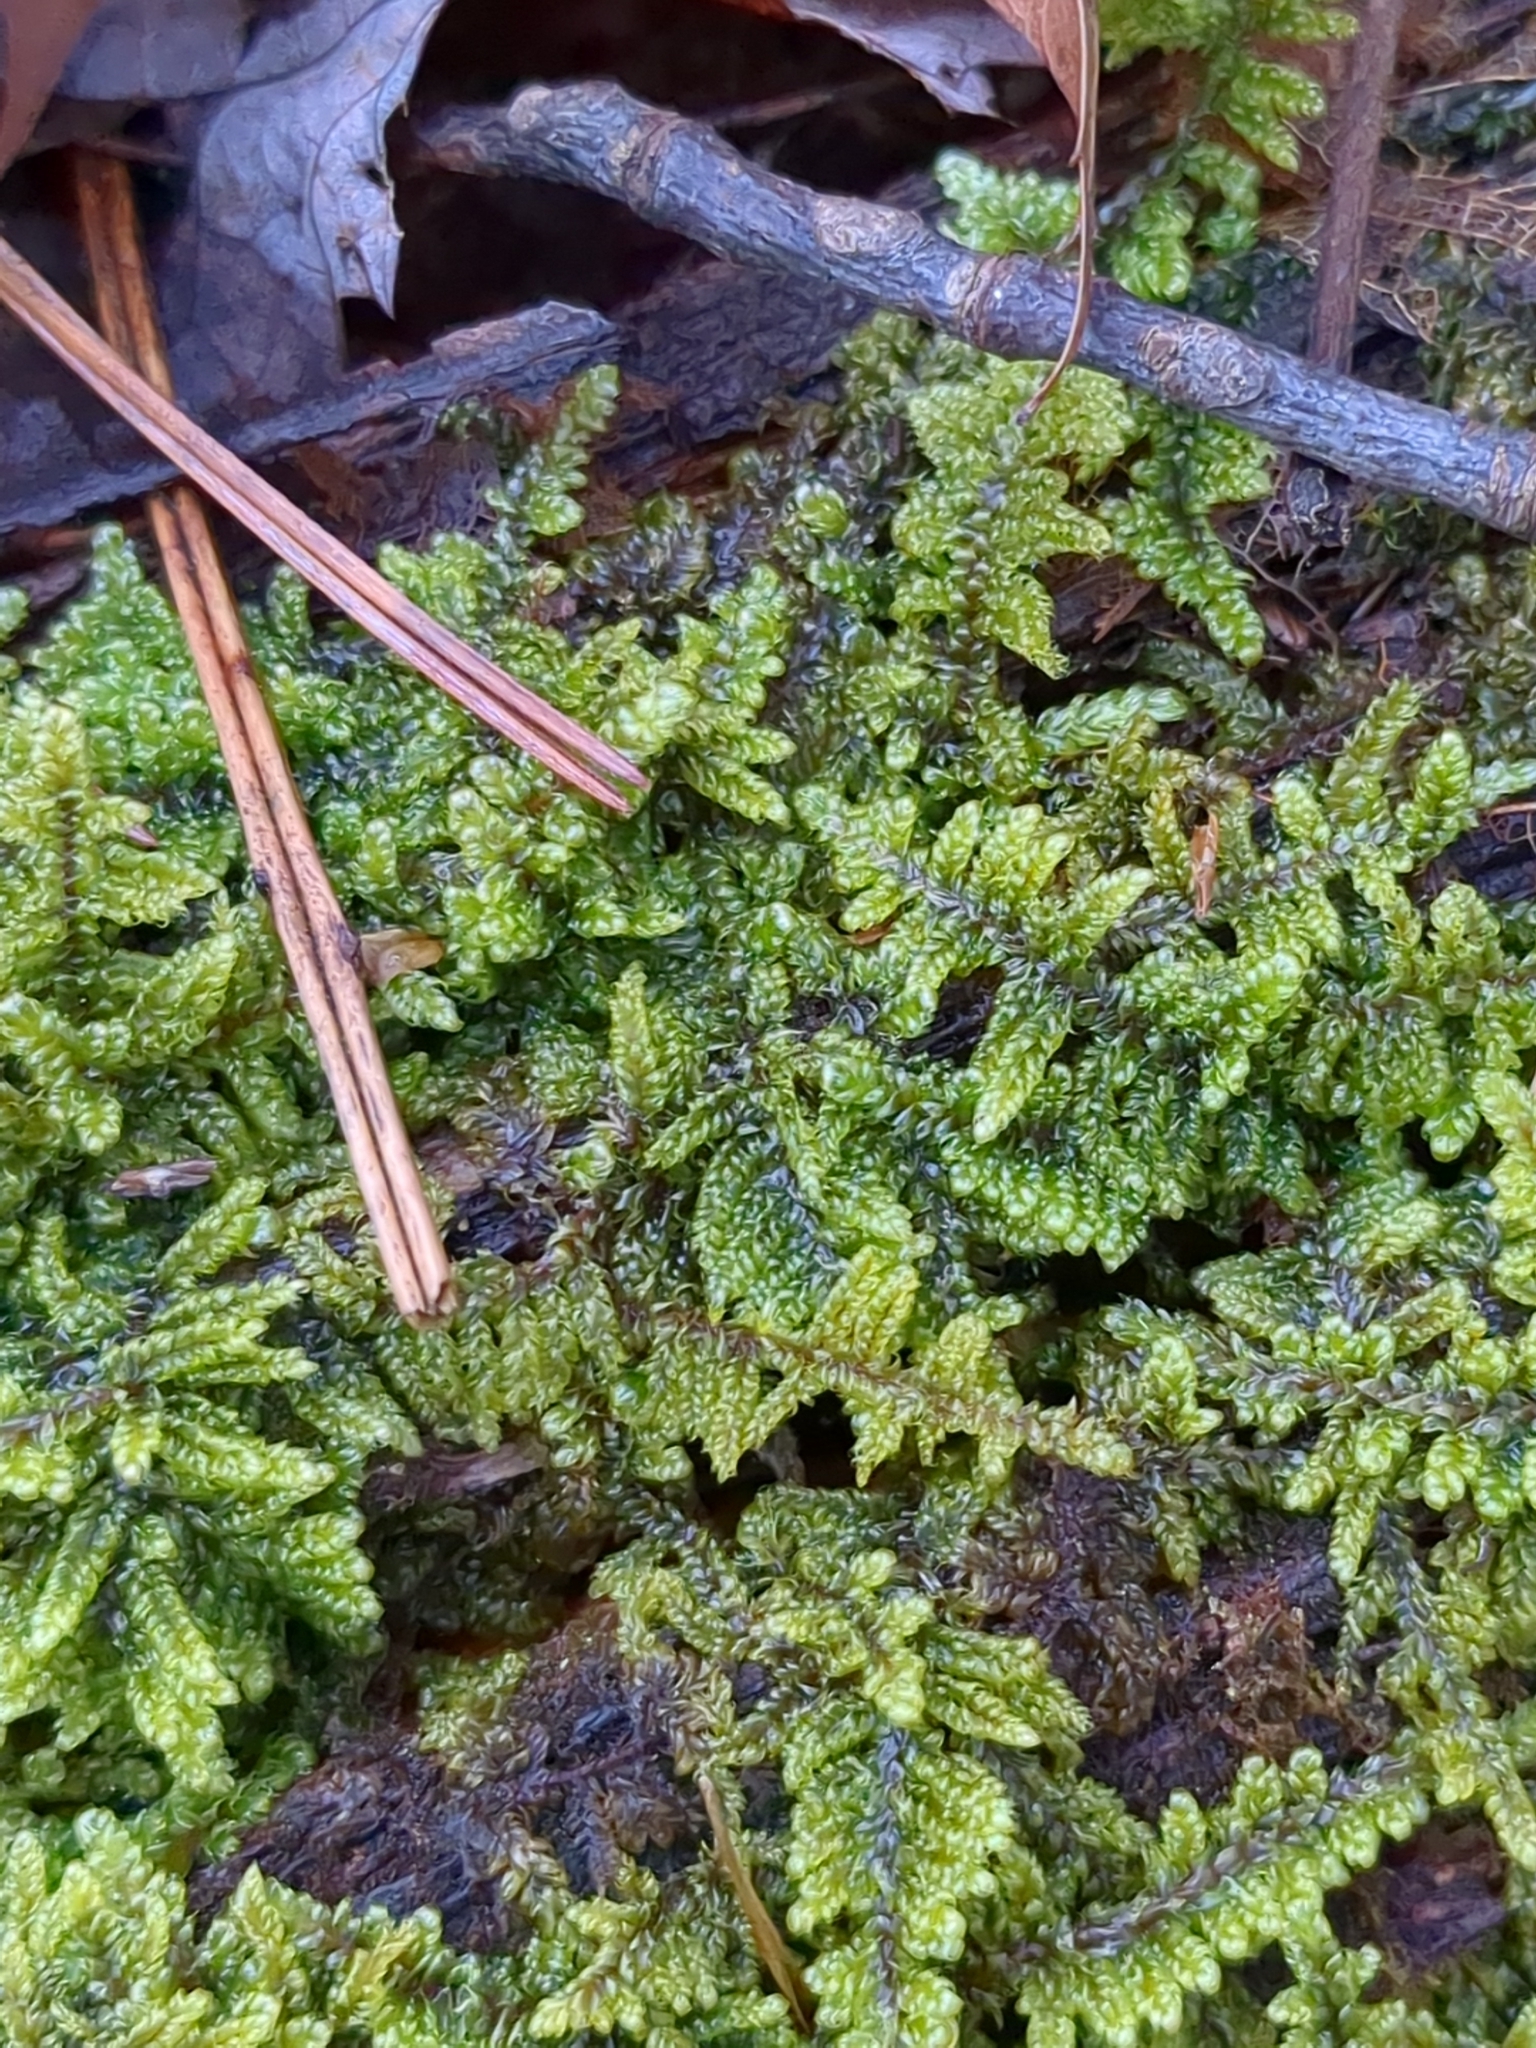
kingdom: Plantae
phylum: Bryophyta
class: Bryopsida
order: Hypnales
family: Callicladiaceae
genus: Callicladium
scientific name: Callicladium imponens
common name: Brocade moss
